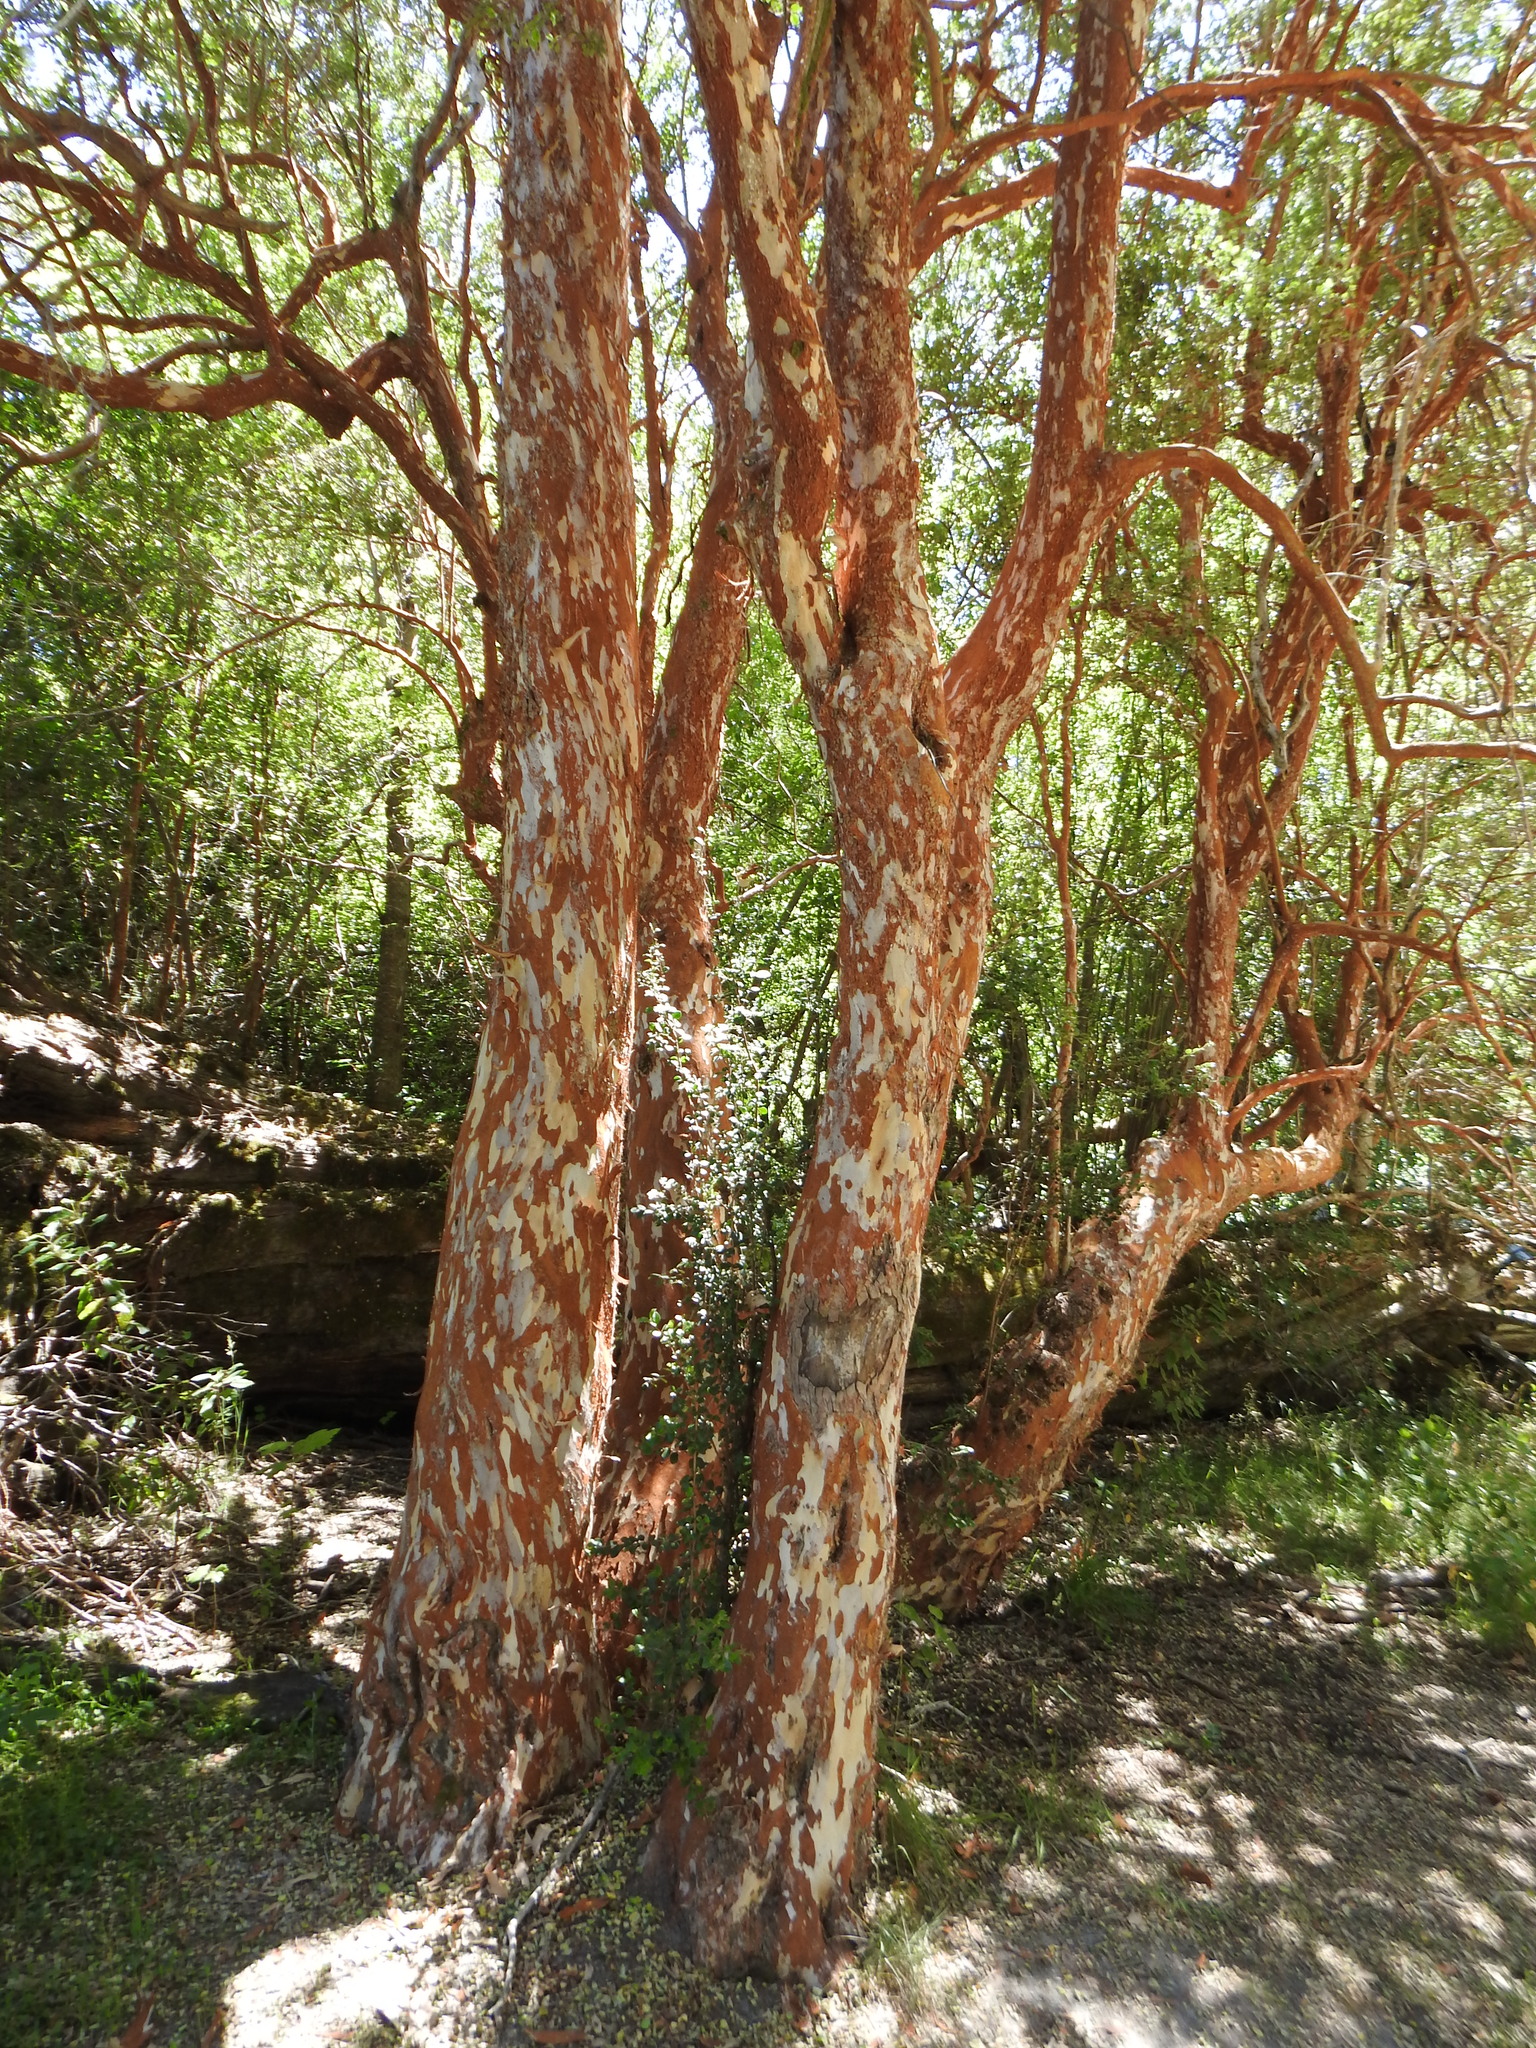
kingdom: Plantae
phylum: Tracheophyta
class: Magnoliopsida
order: Myrtales
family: Myrtaceae
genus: Luma
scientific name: Luma apiculata
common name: Chilean myrtle
